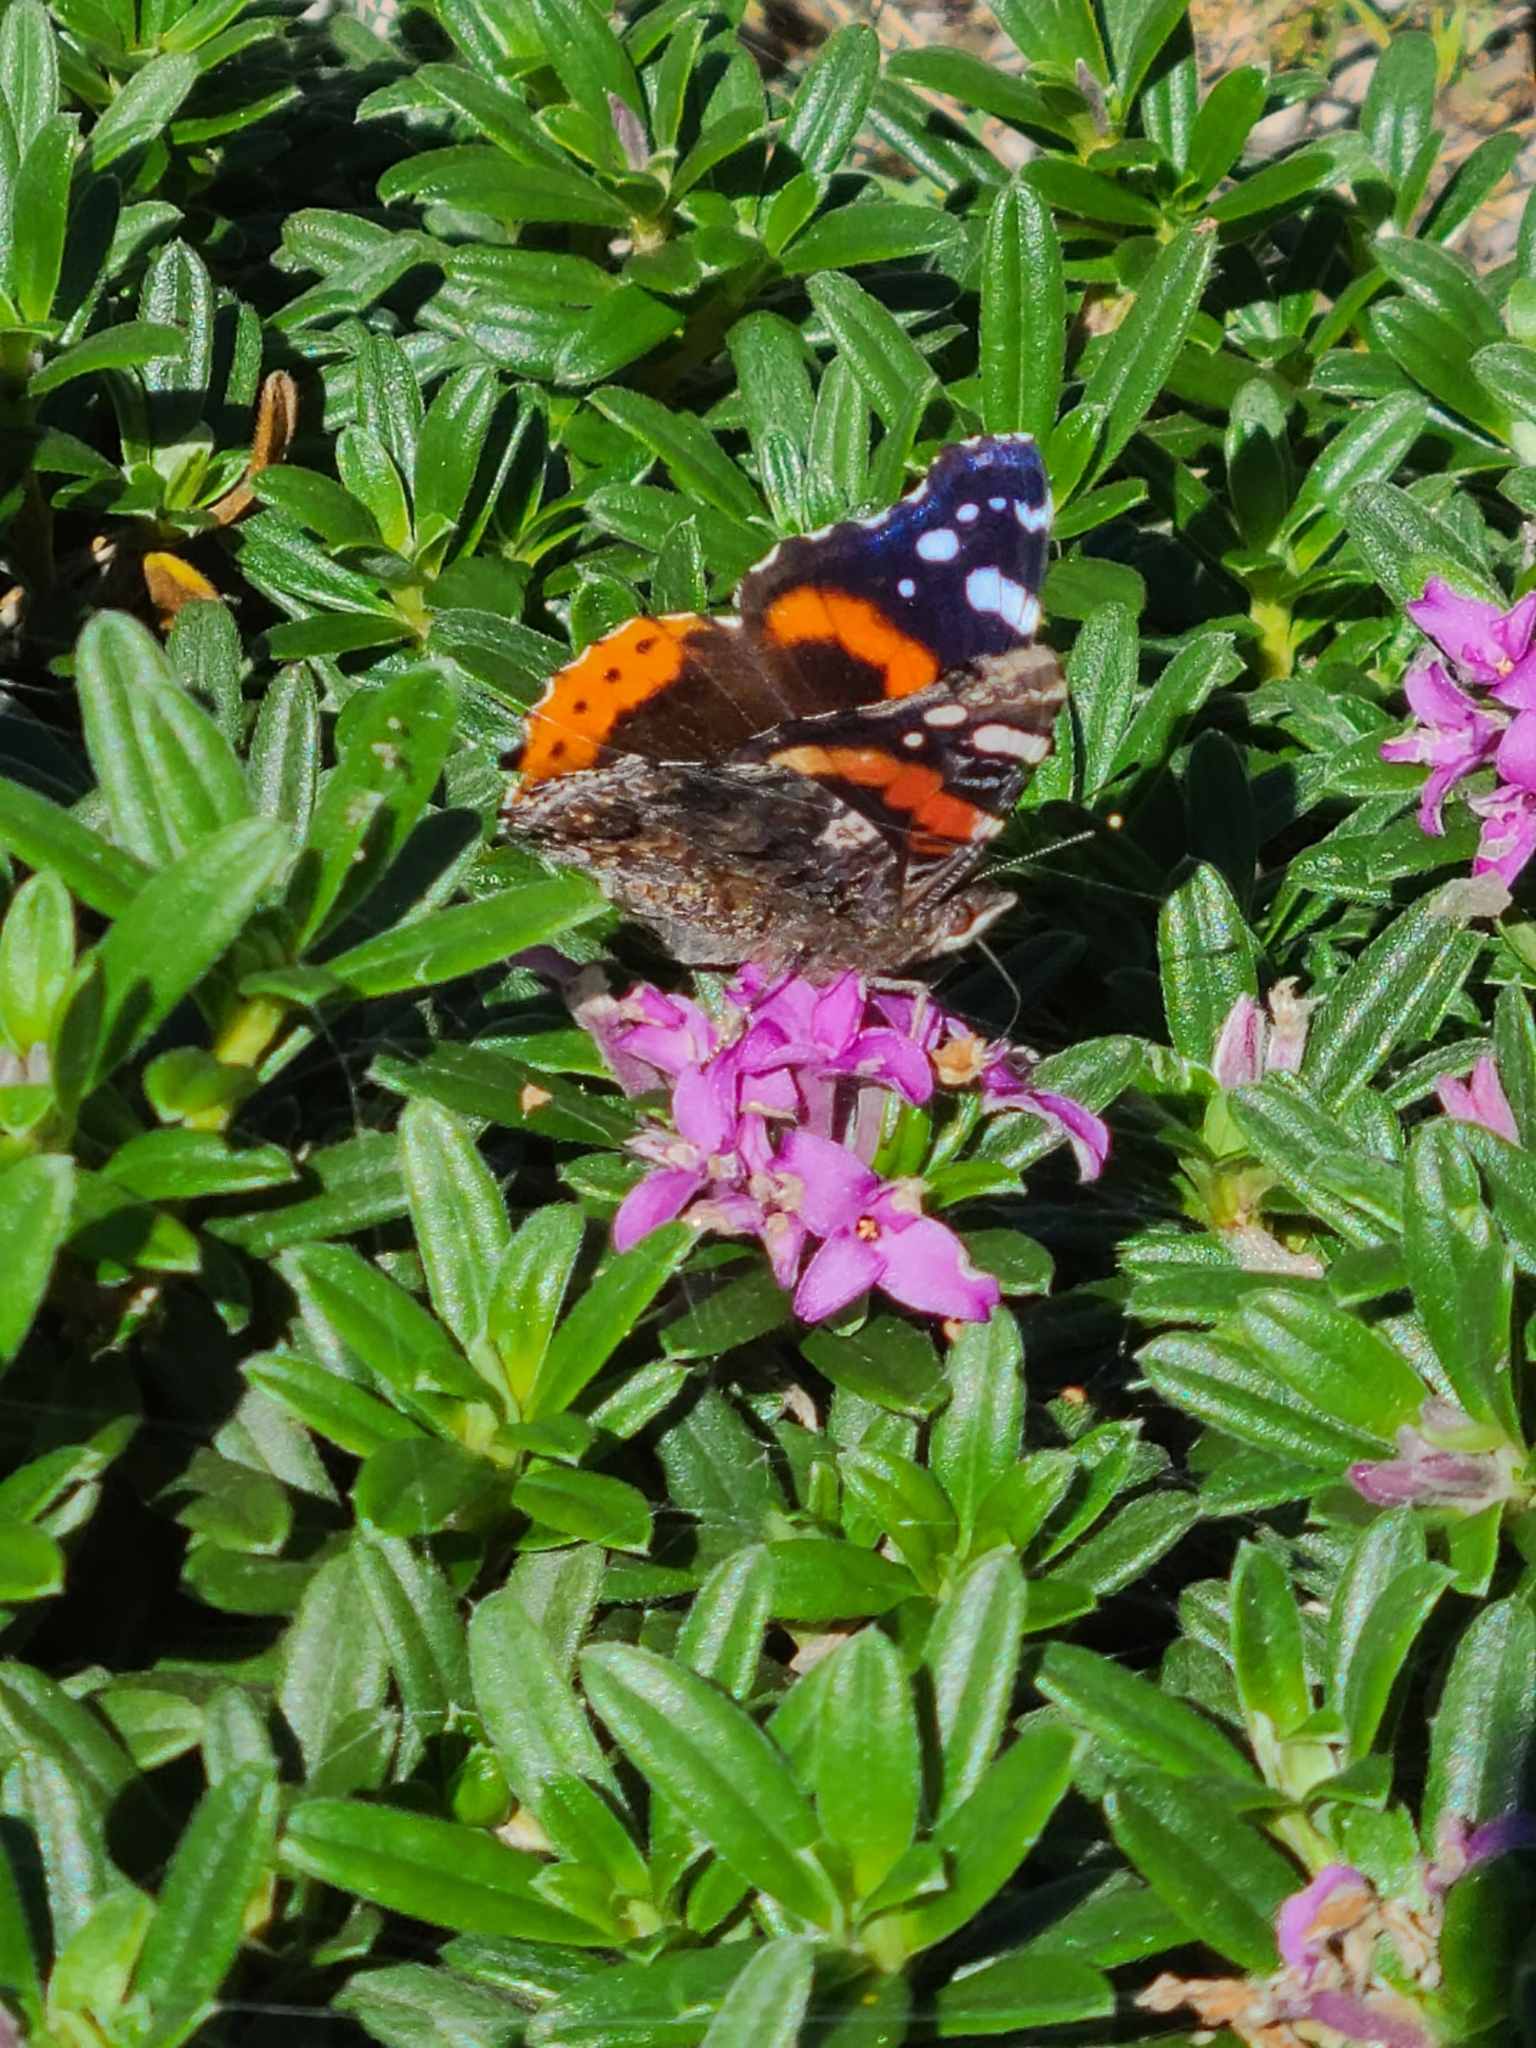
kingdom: Animalia
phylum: Arthropoda
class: Insecta
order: Lepidoptera
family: Nymphalidae
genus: Vanessa
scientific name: Vanessa atalanta
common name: Red admiral
